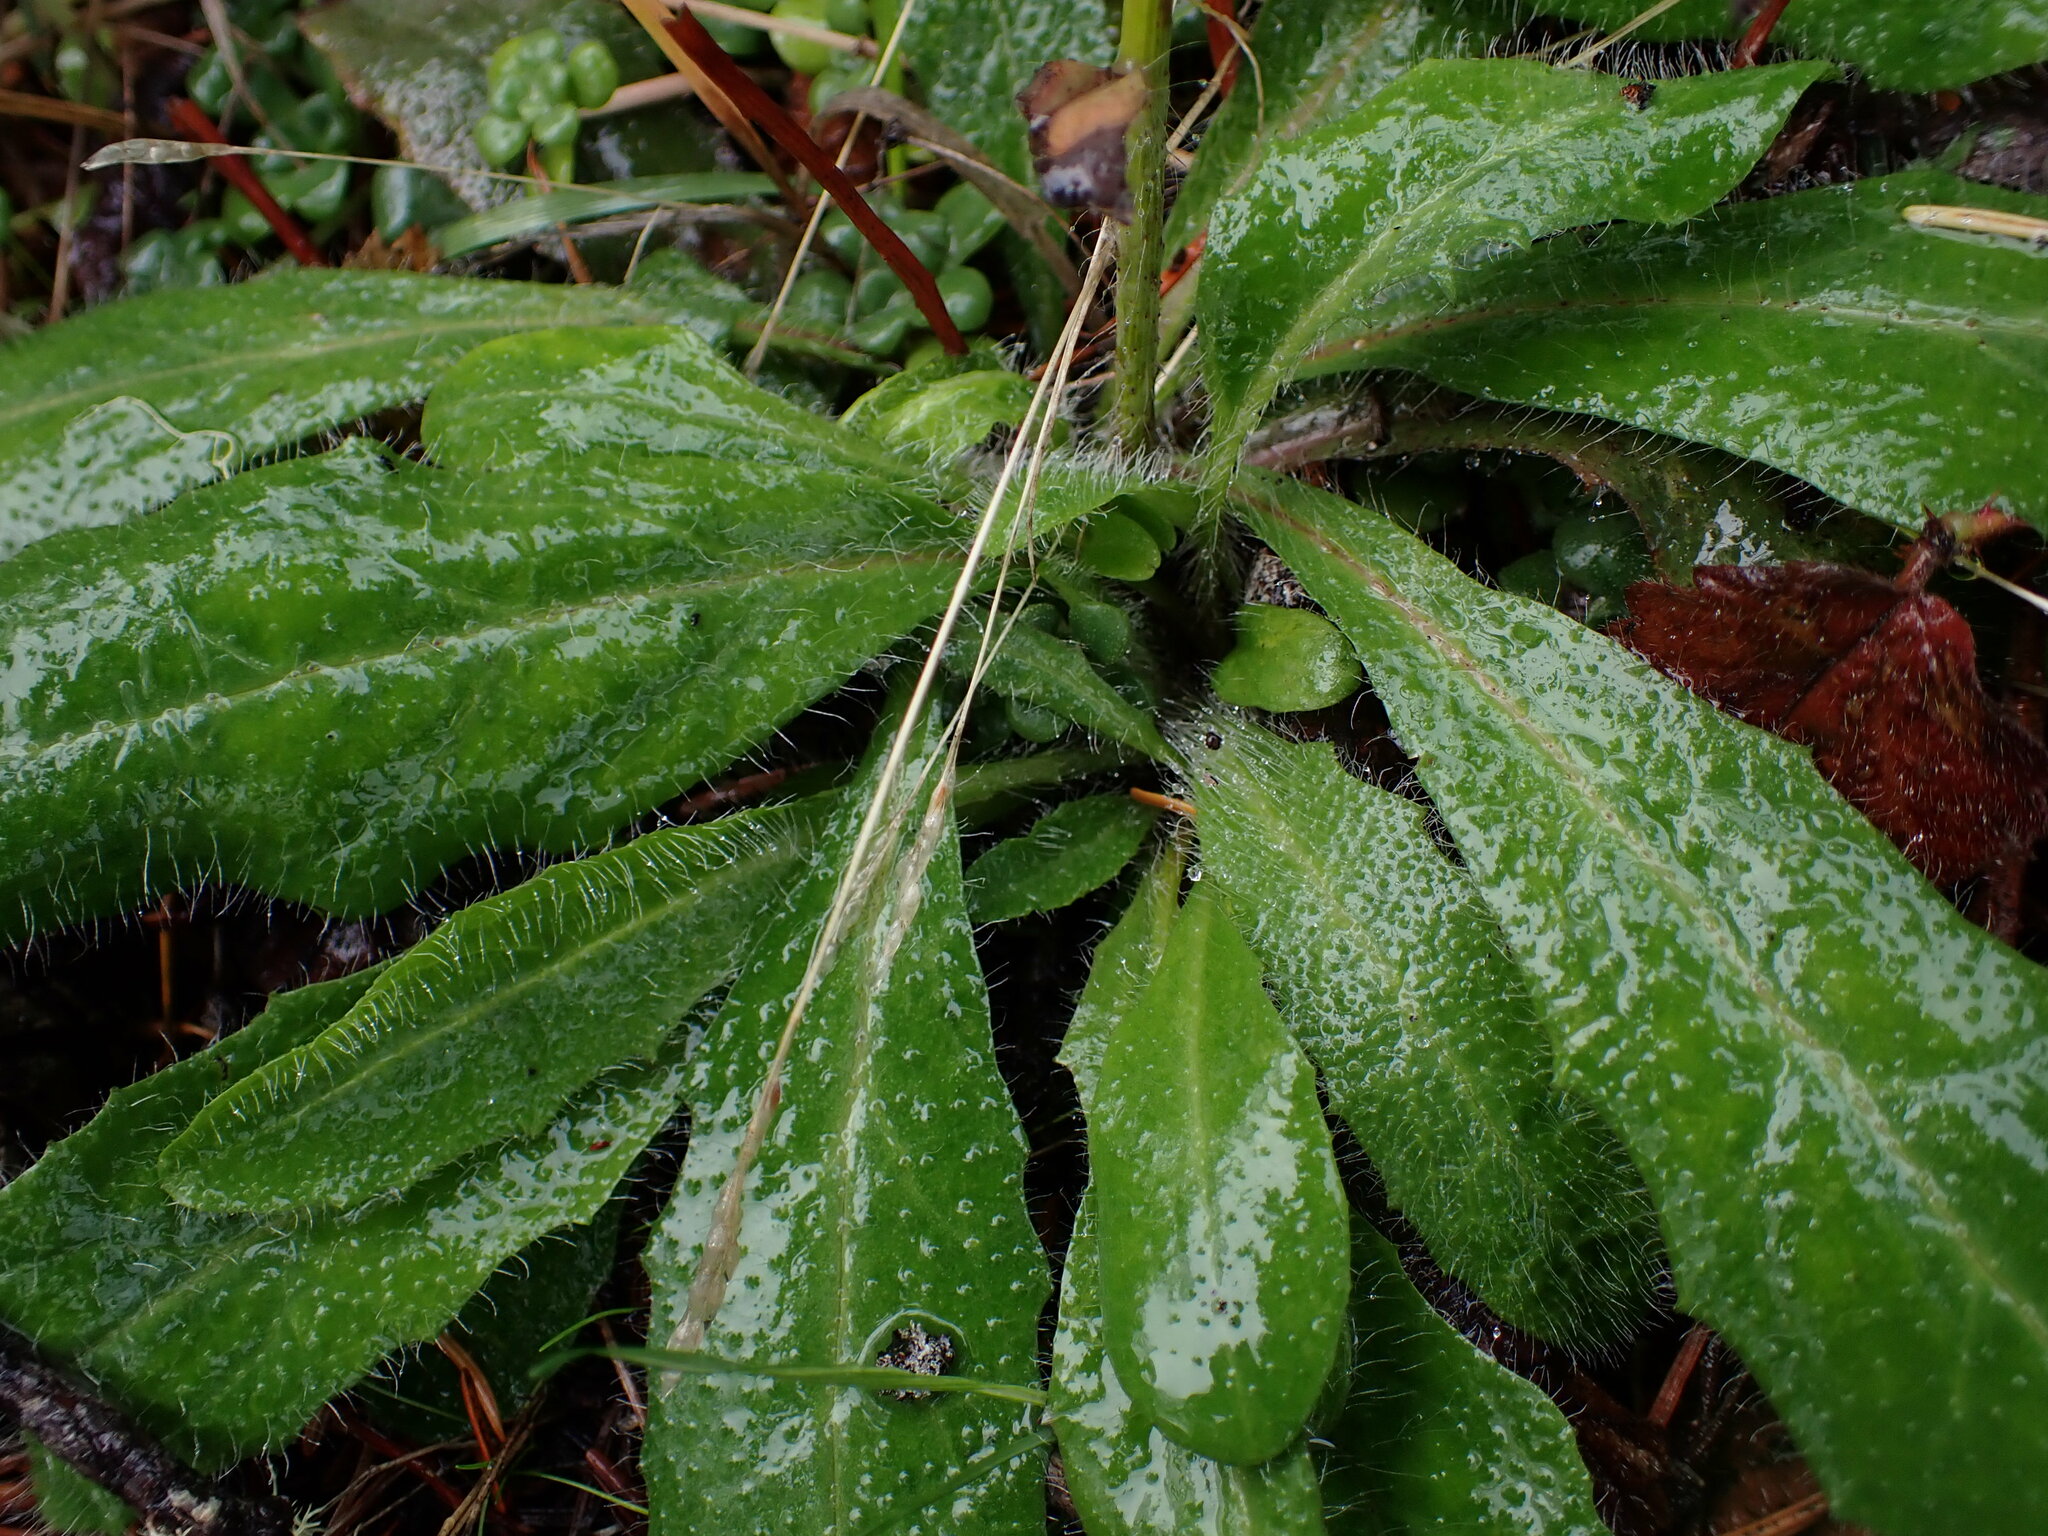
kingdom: Plantae
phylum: Tracheophyta
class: Magnoliopsida
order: Asterales
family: Asteraceae
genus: Hieracium
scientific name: Hieracium albiflorum
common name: White hawkweed
